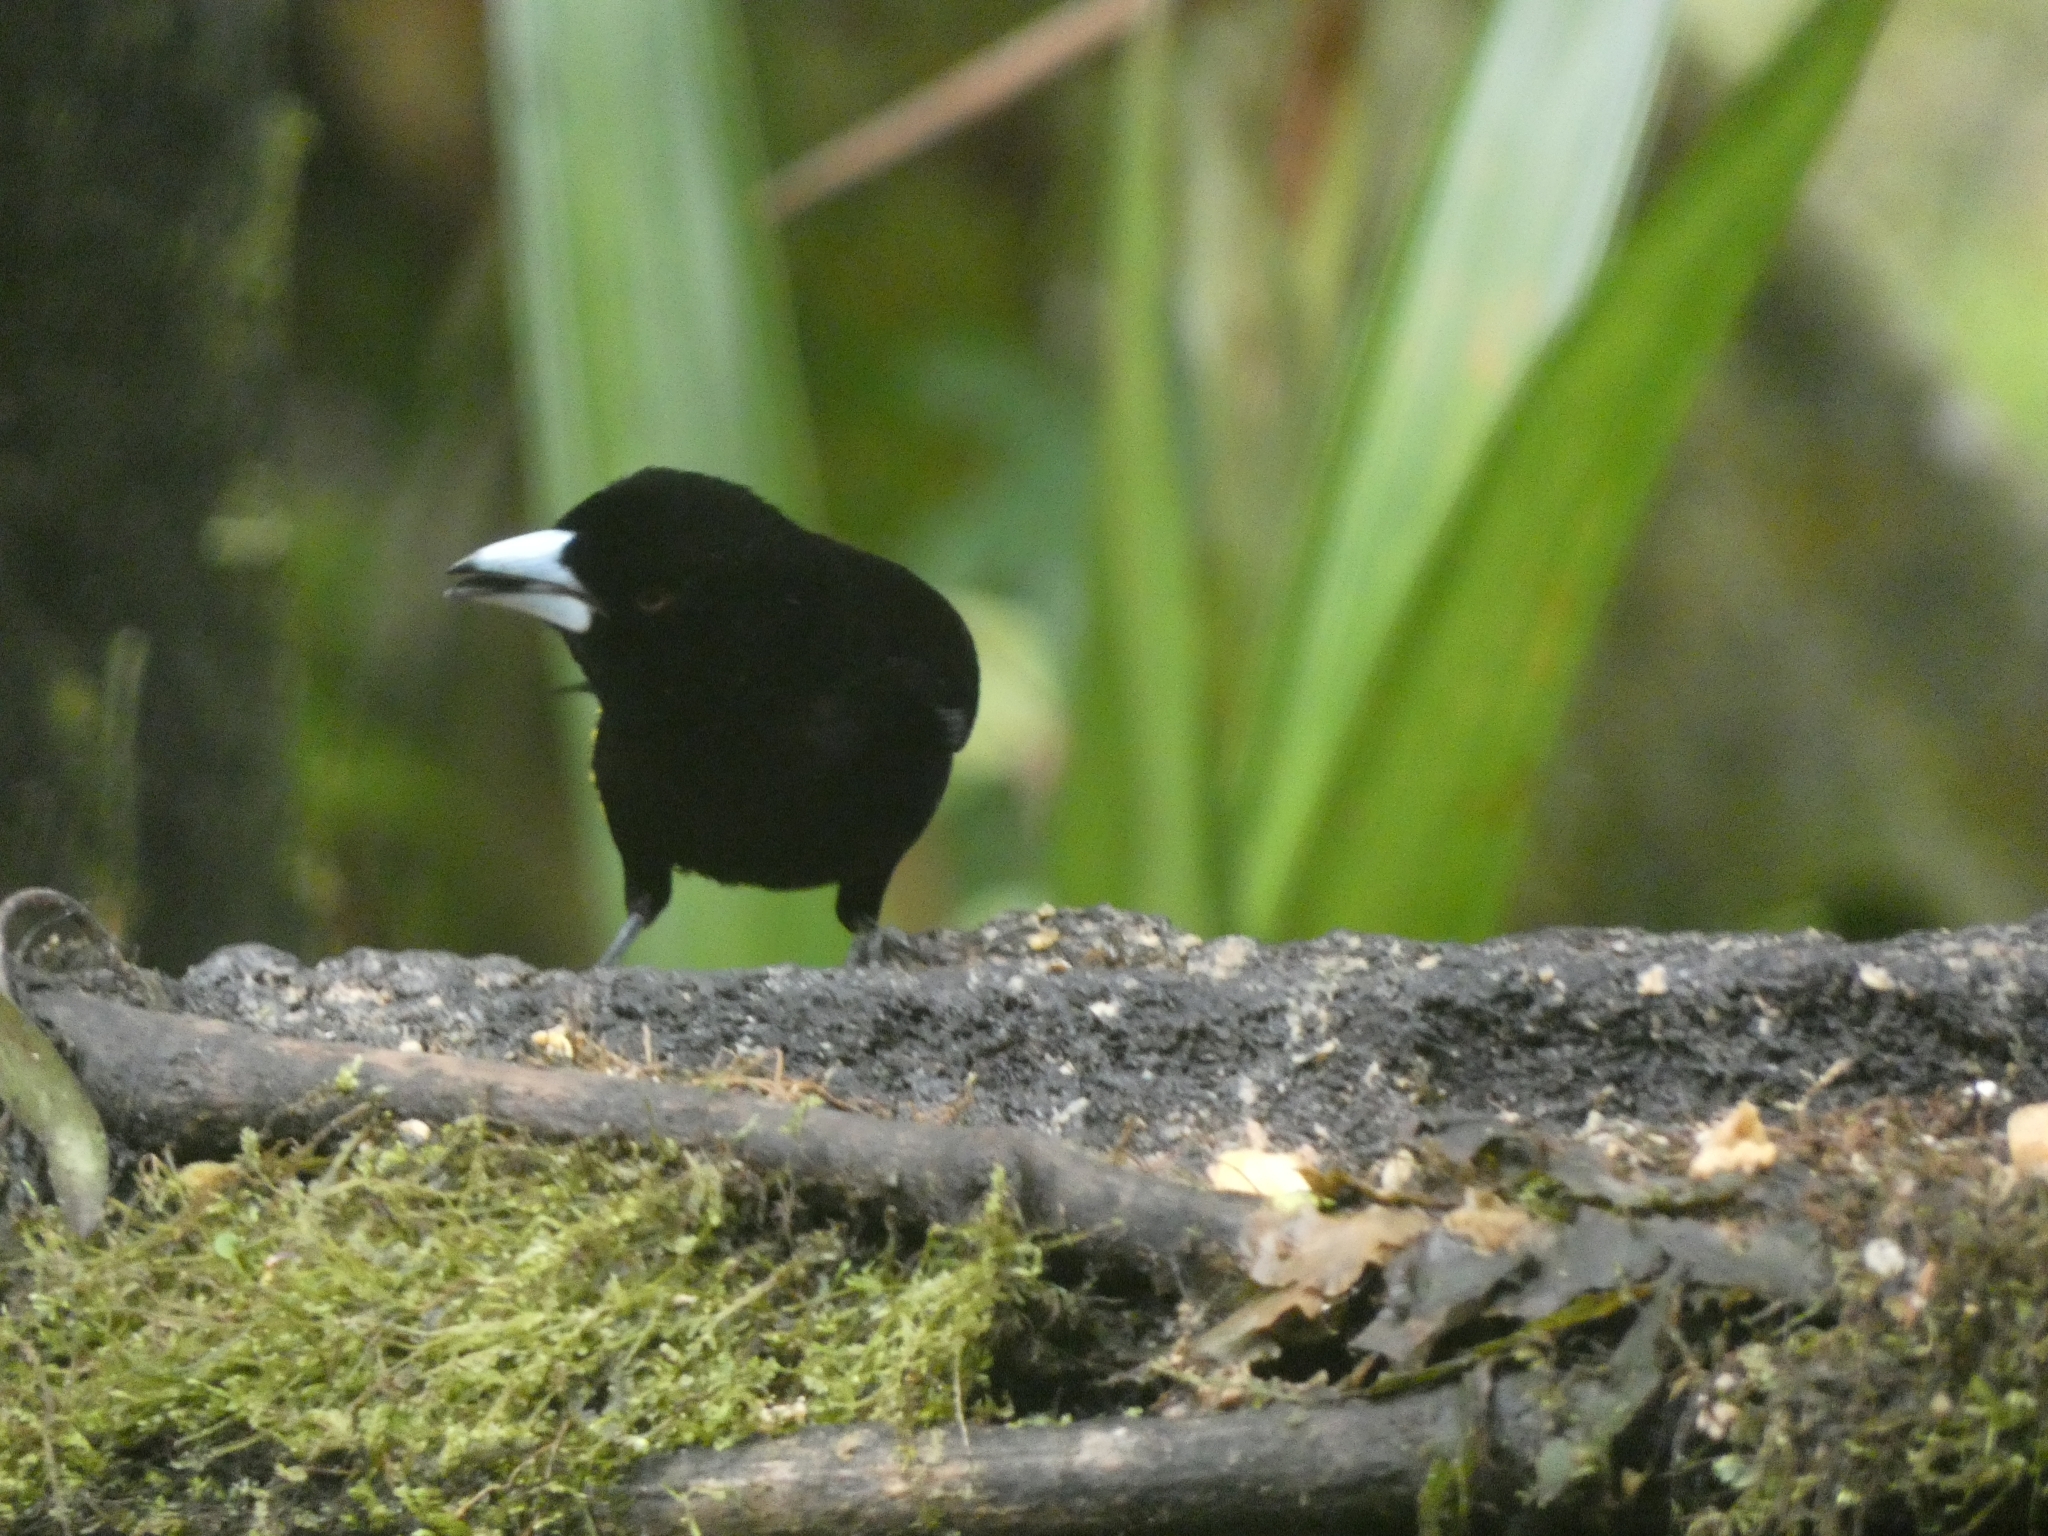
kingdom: Animalia
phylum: Chordata
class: Aves
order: Passeriformes
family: Thraupidae
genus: Ramphocelus
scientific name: Ramphocelus icteronotus
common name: Lemon-rumped tanager
